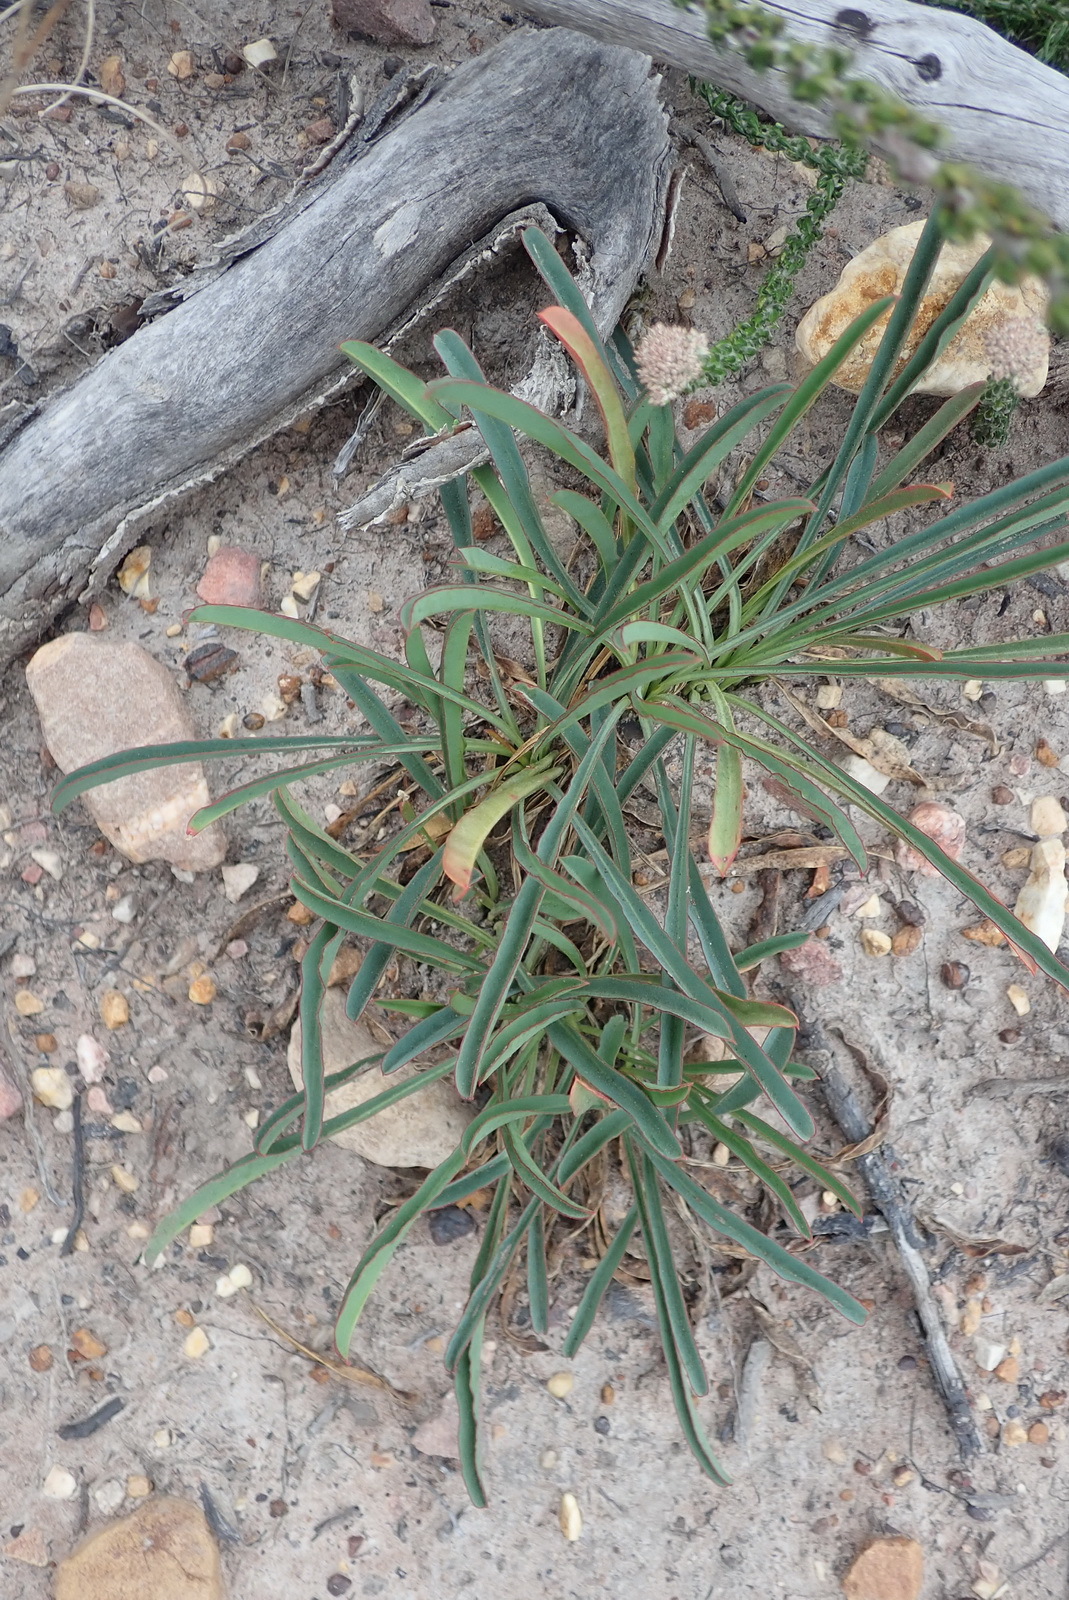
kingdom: Plantae
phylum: Tracheophyta
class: Magnoliopsida
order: Malpighiales
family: Euphorbiaceae
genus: Euphorbia
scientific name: Euphorbia silenifolia
